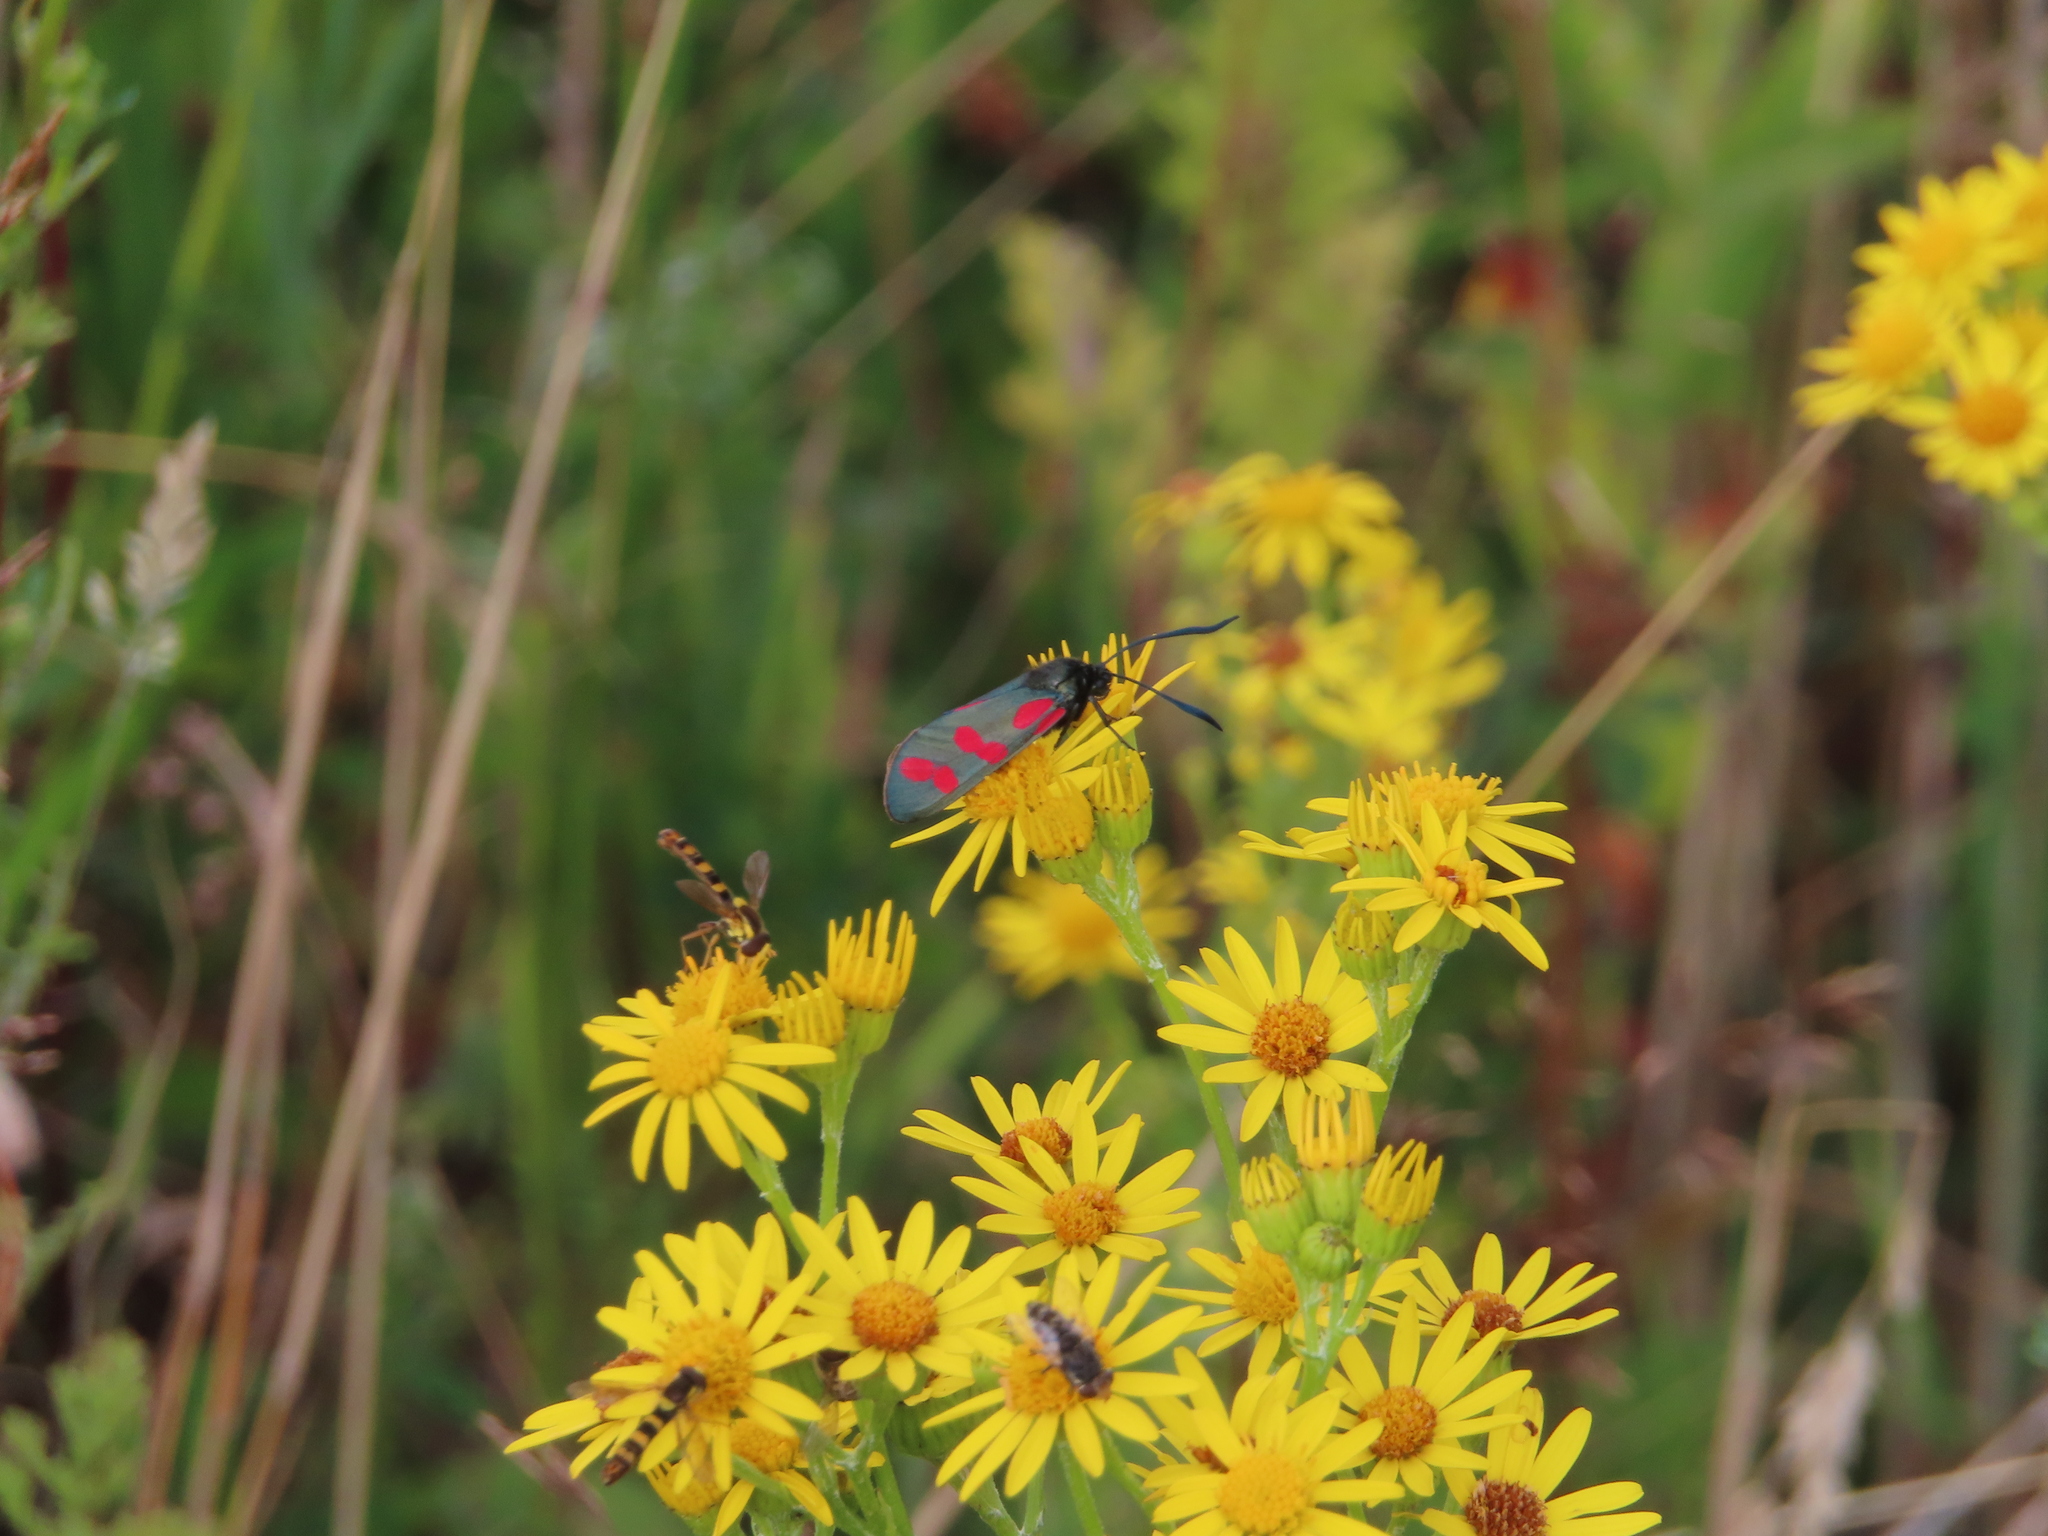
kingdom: Animalia
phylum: Arthropoda
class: Insecta
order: Lepidoptera
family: Zygaenidae
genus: Zygaena
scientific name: Zygaena filipendulae
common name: Six-spot burnet
